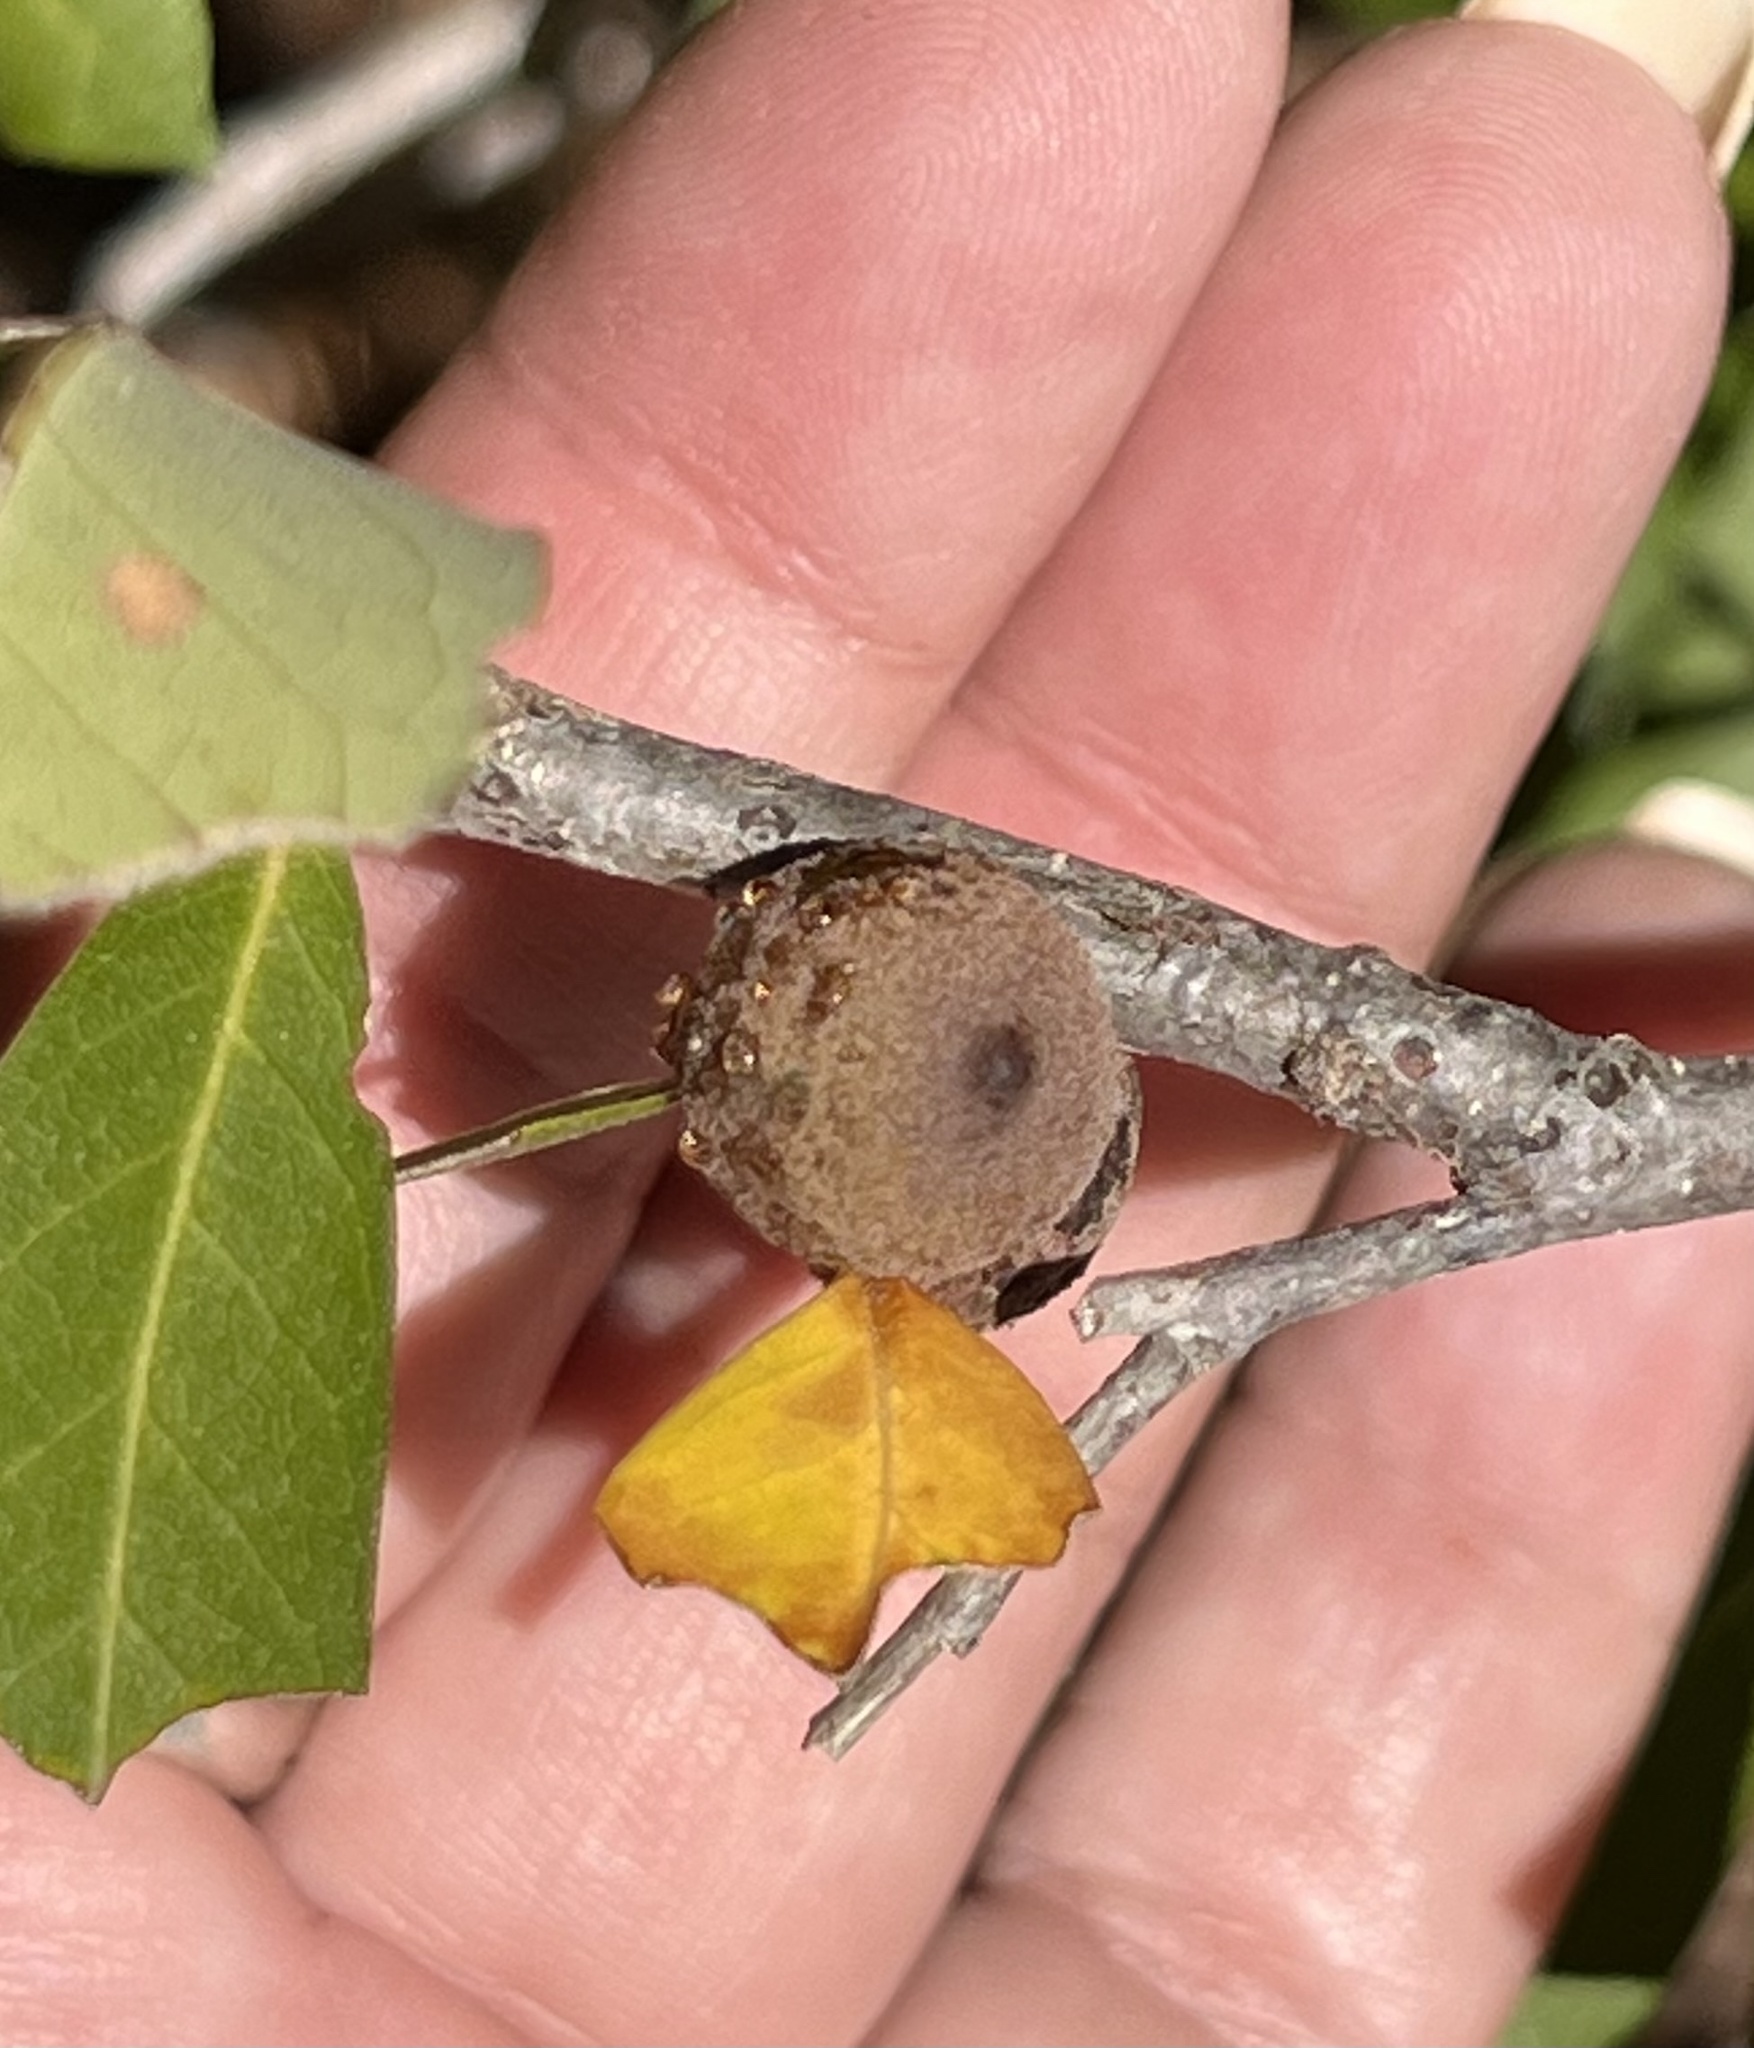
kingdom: Animalia
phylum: Arthropoda
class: Insecta
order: Hymenoptera
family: Cynipidae
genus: Disholcaspis
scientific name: Disholcaspis
